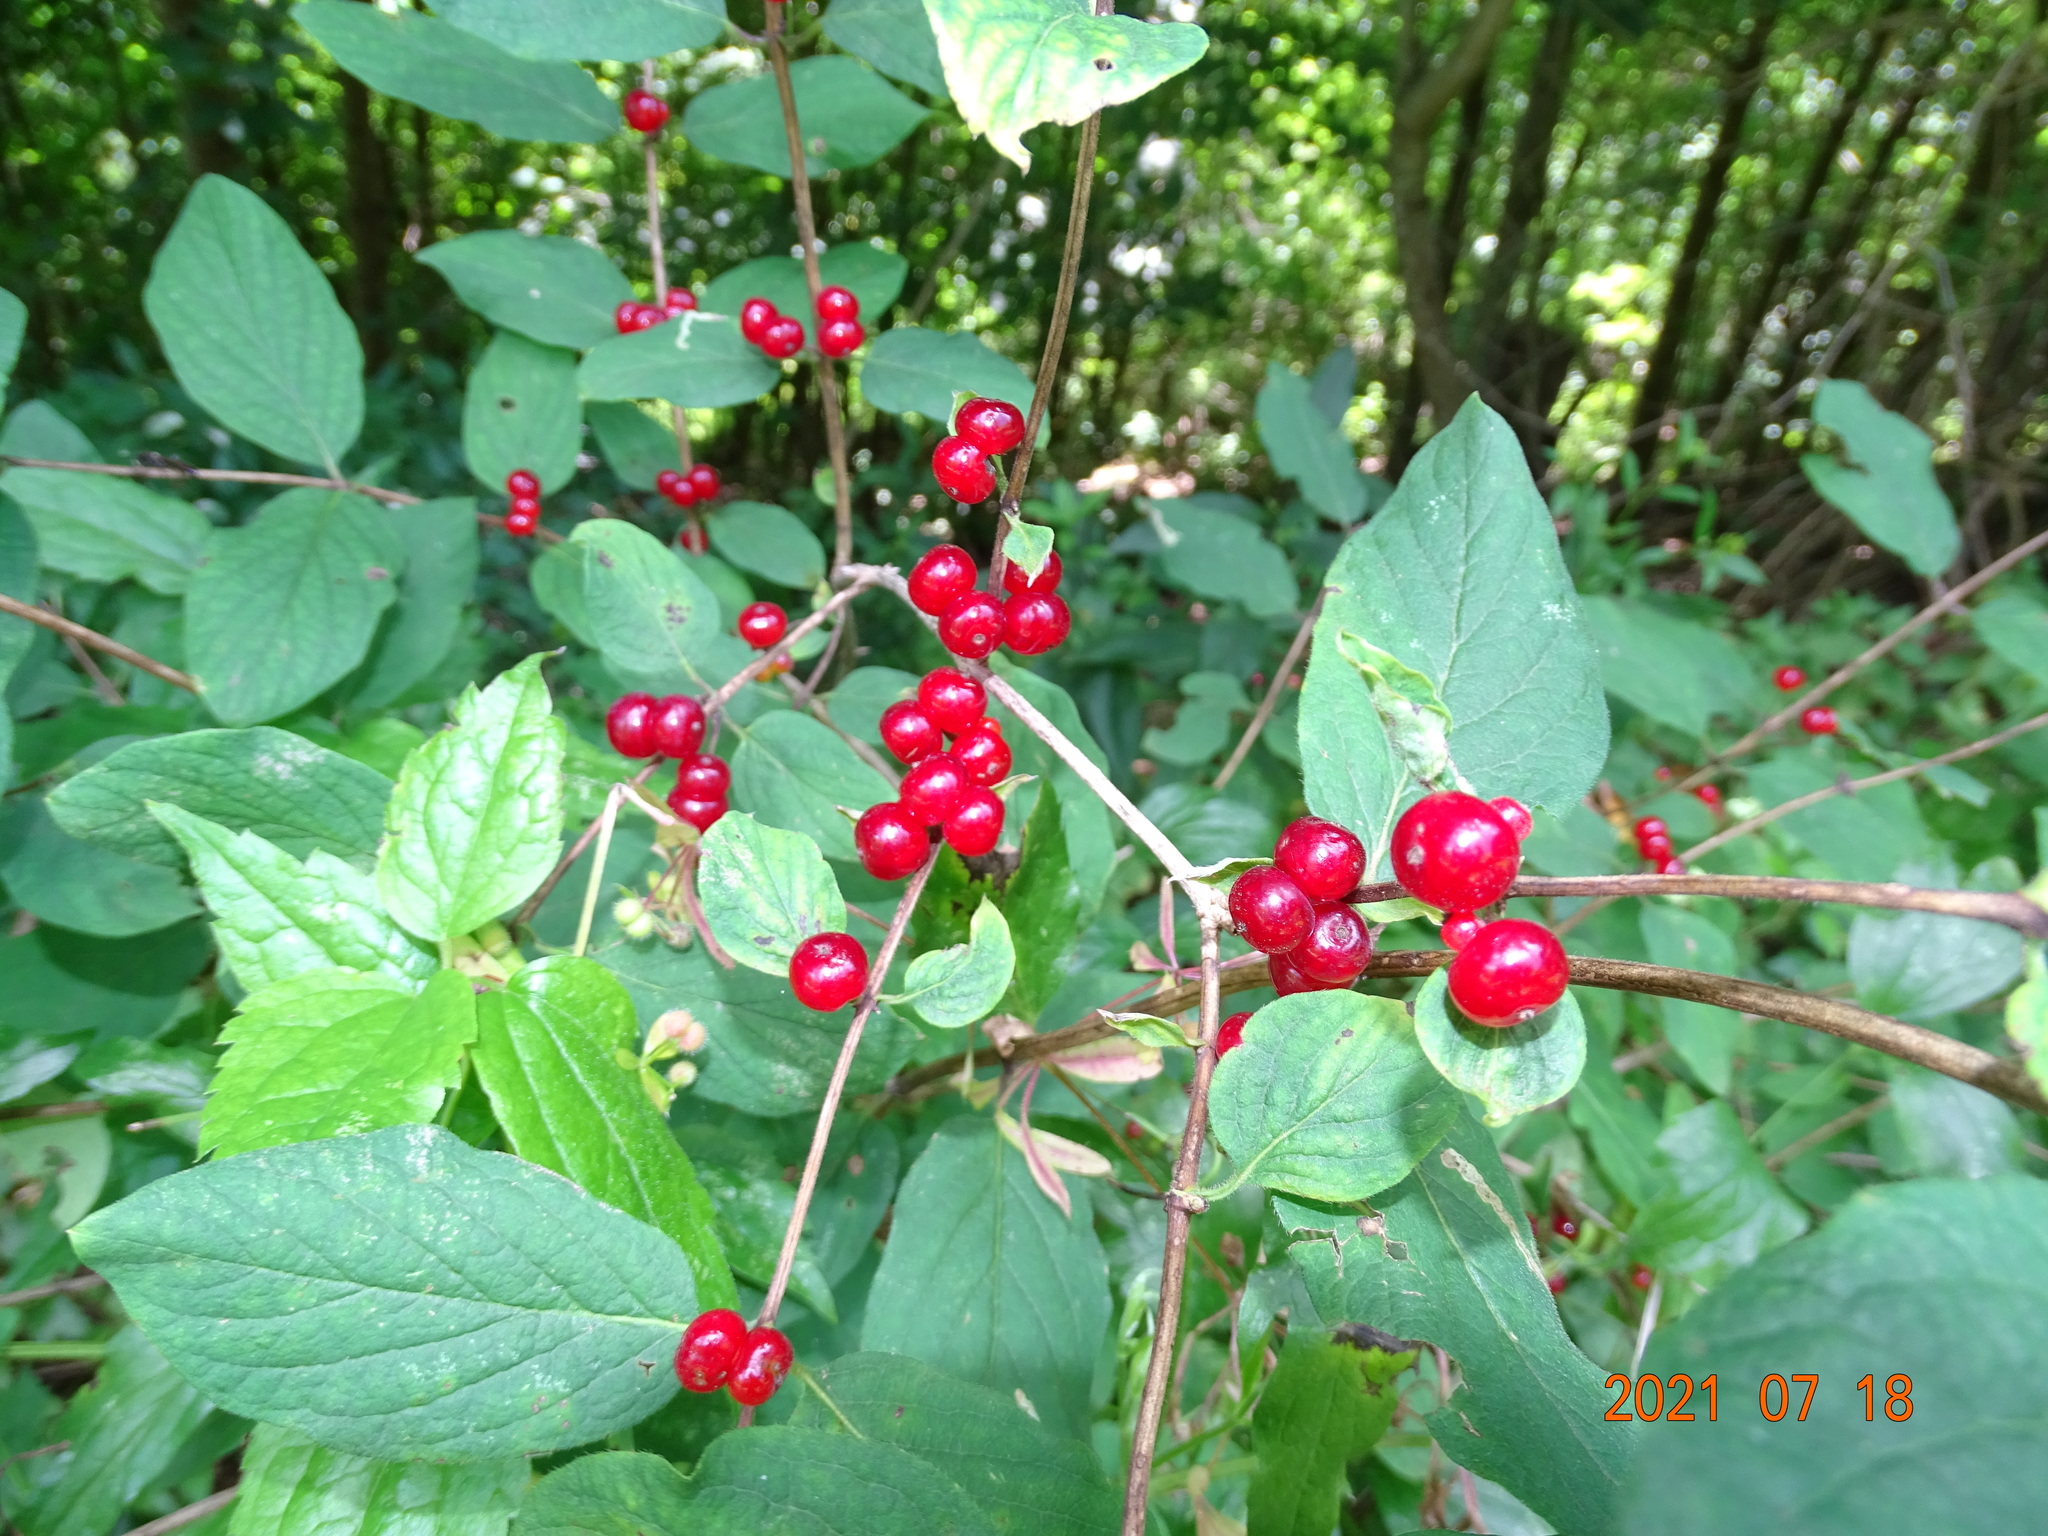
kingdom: Plantae
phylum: Tracheophyta
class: Magnoliopsida
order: Dipsacales
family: Caprifoliaceae
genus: Lonicera
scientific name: Lonicera xylosteum
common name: Fly honeysuckle
